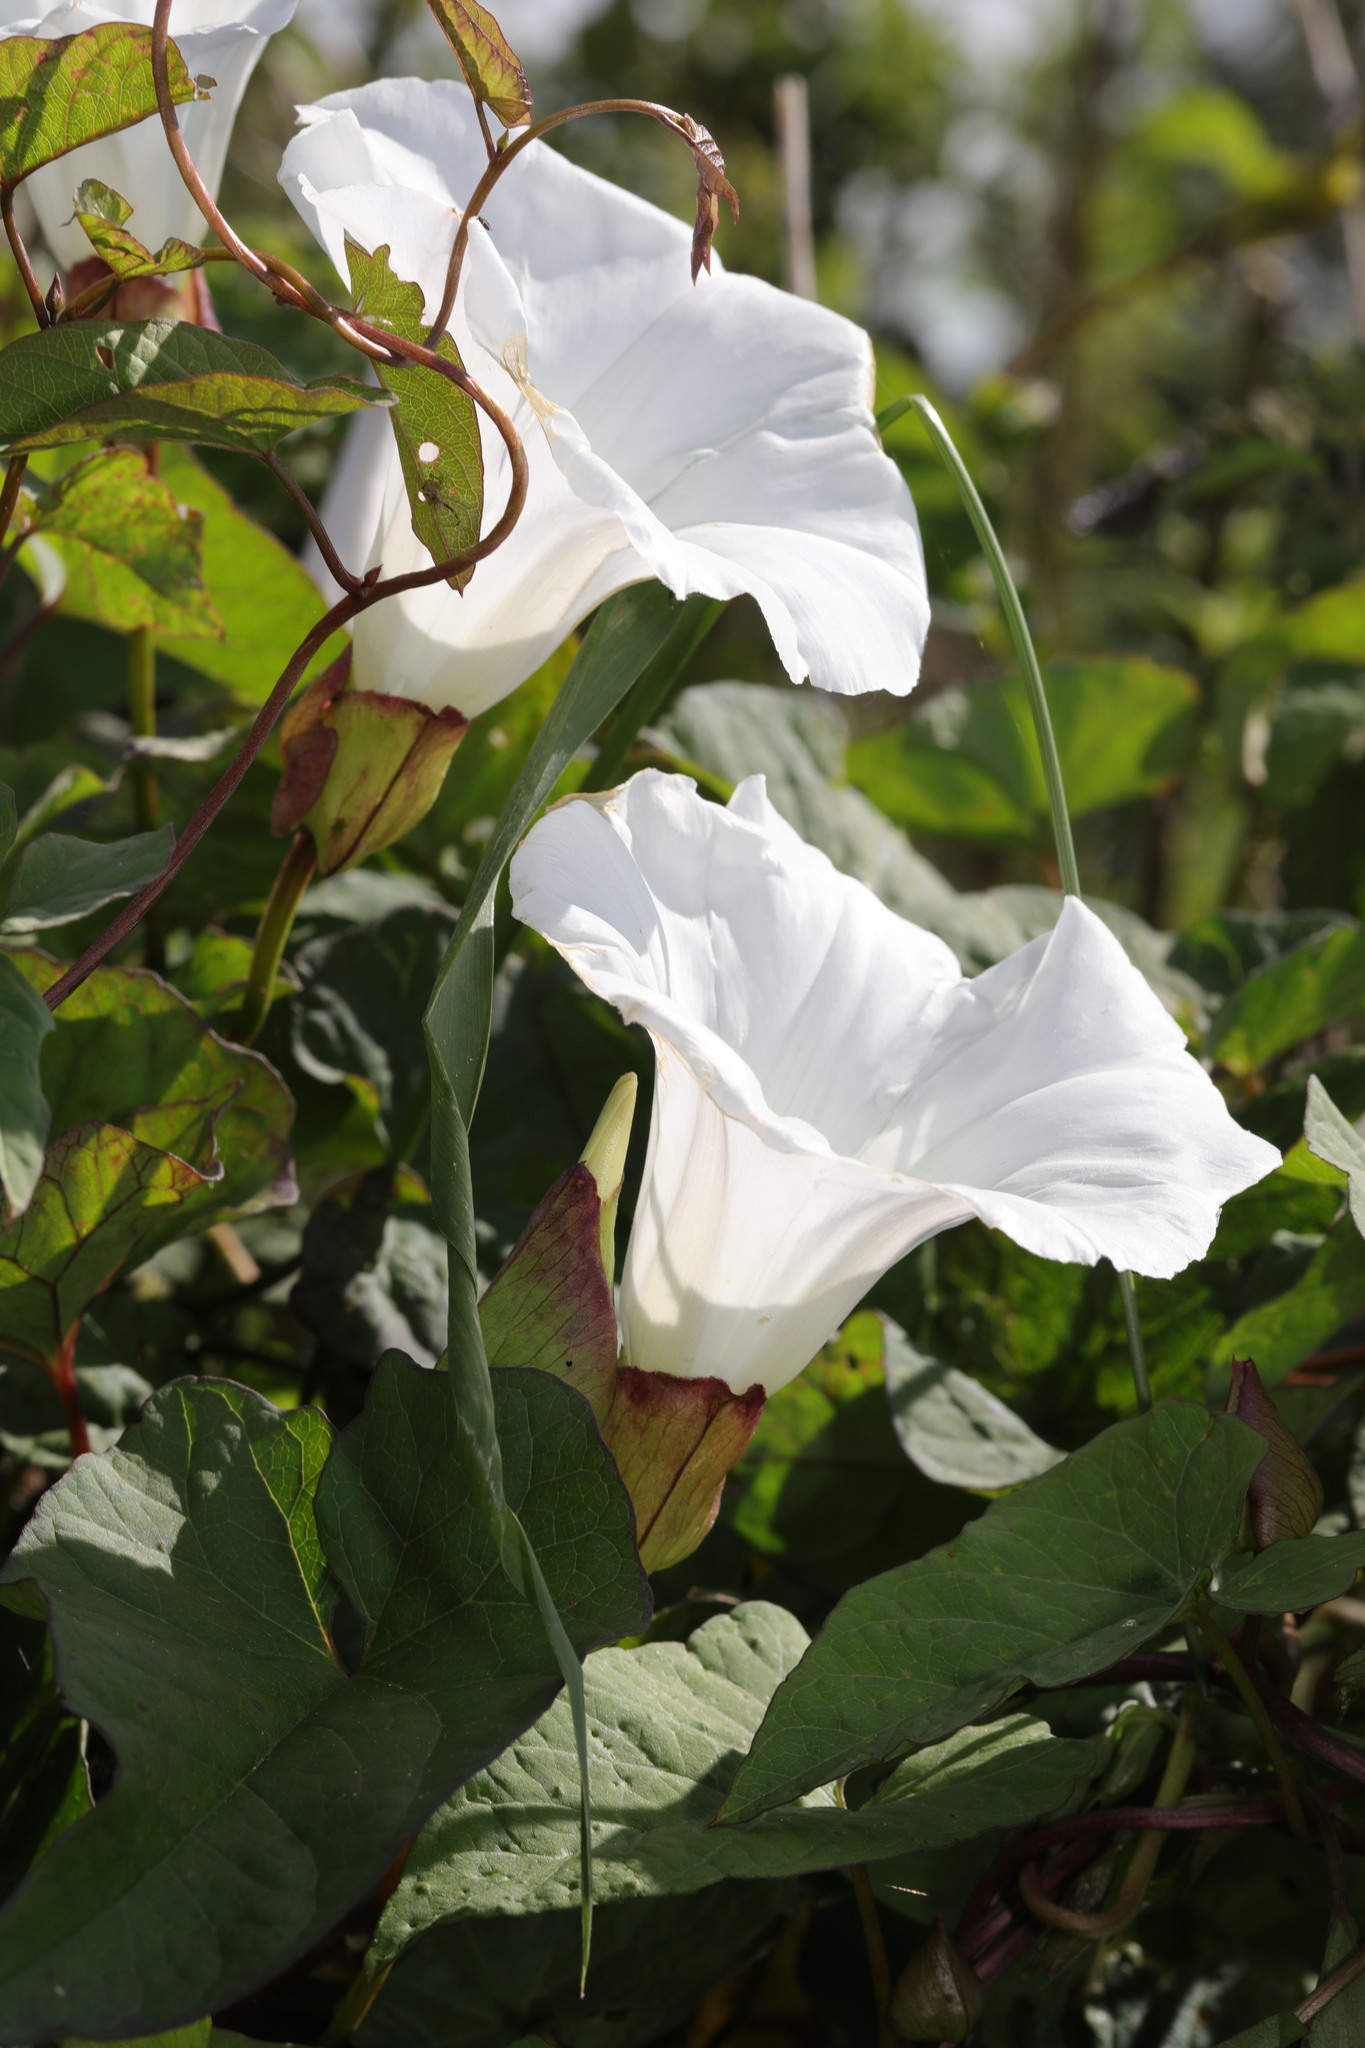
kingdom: Plantae
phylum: Tracheophyta
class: Magnoliopsida
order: Solanales
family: Convolvulaceae
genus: Calystegia
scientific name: Calystegia silvatica
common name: Large bindweed
